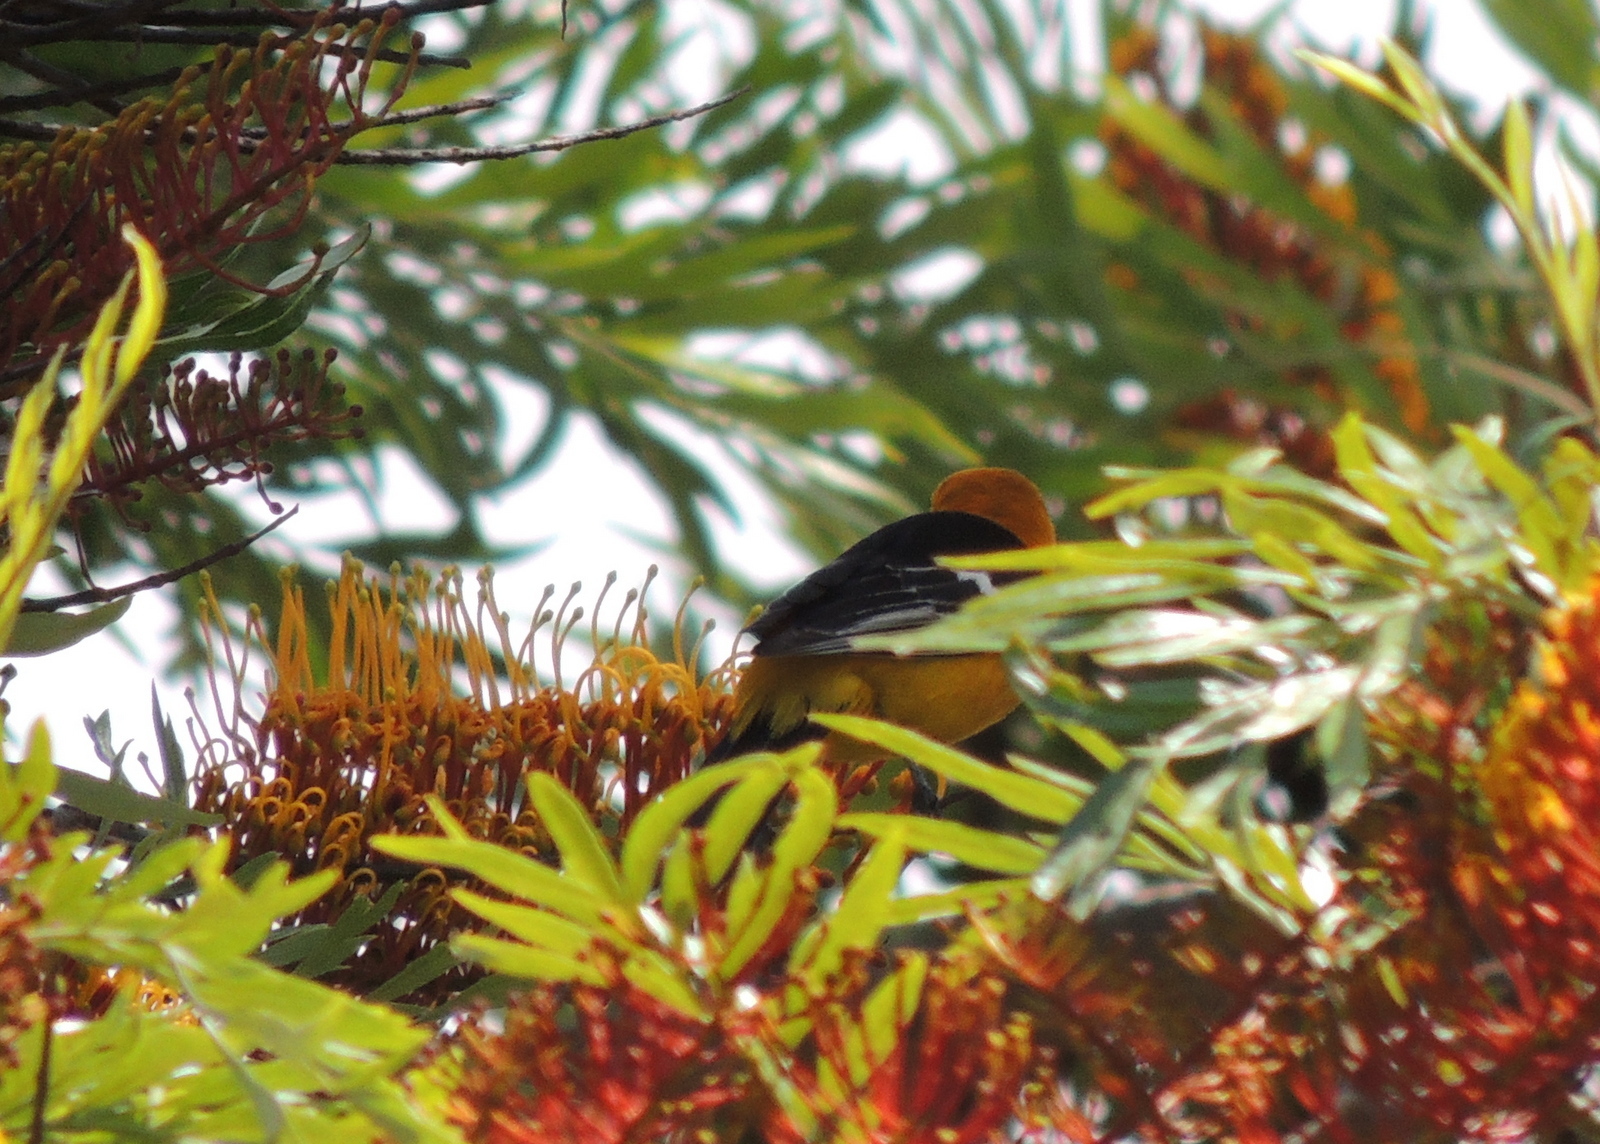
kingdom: Animalia
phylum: Chordata
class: Aves
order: Passeriformes
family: Icteridae
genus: Icterus
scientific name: Icterus cucullatus
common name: Hooded oriole
